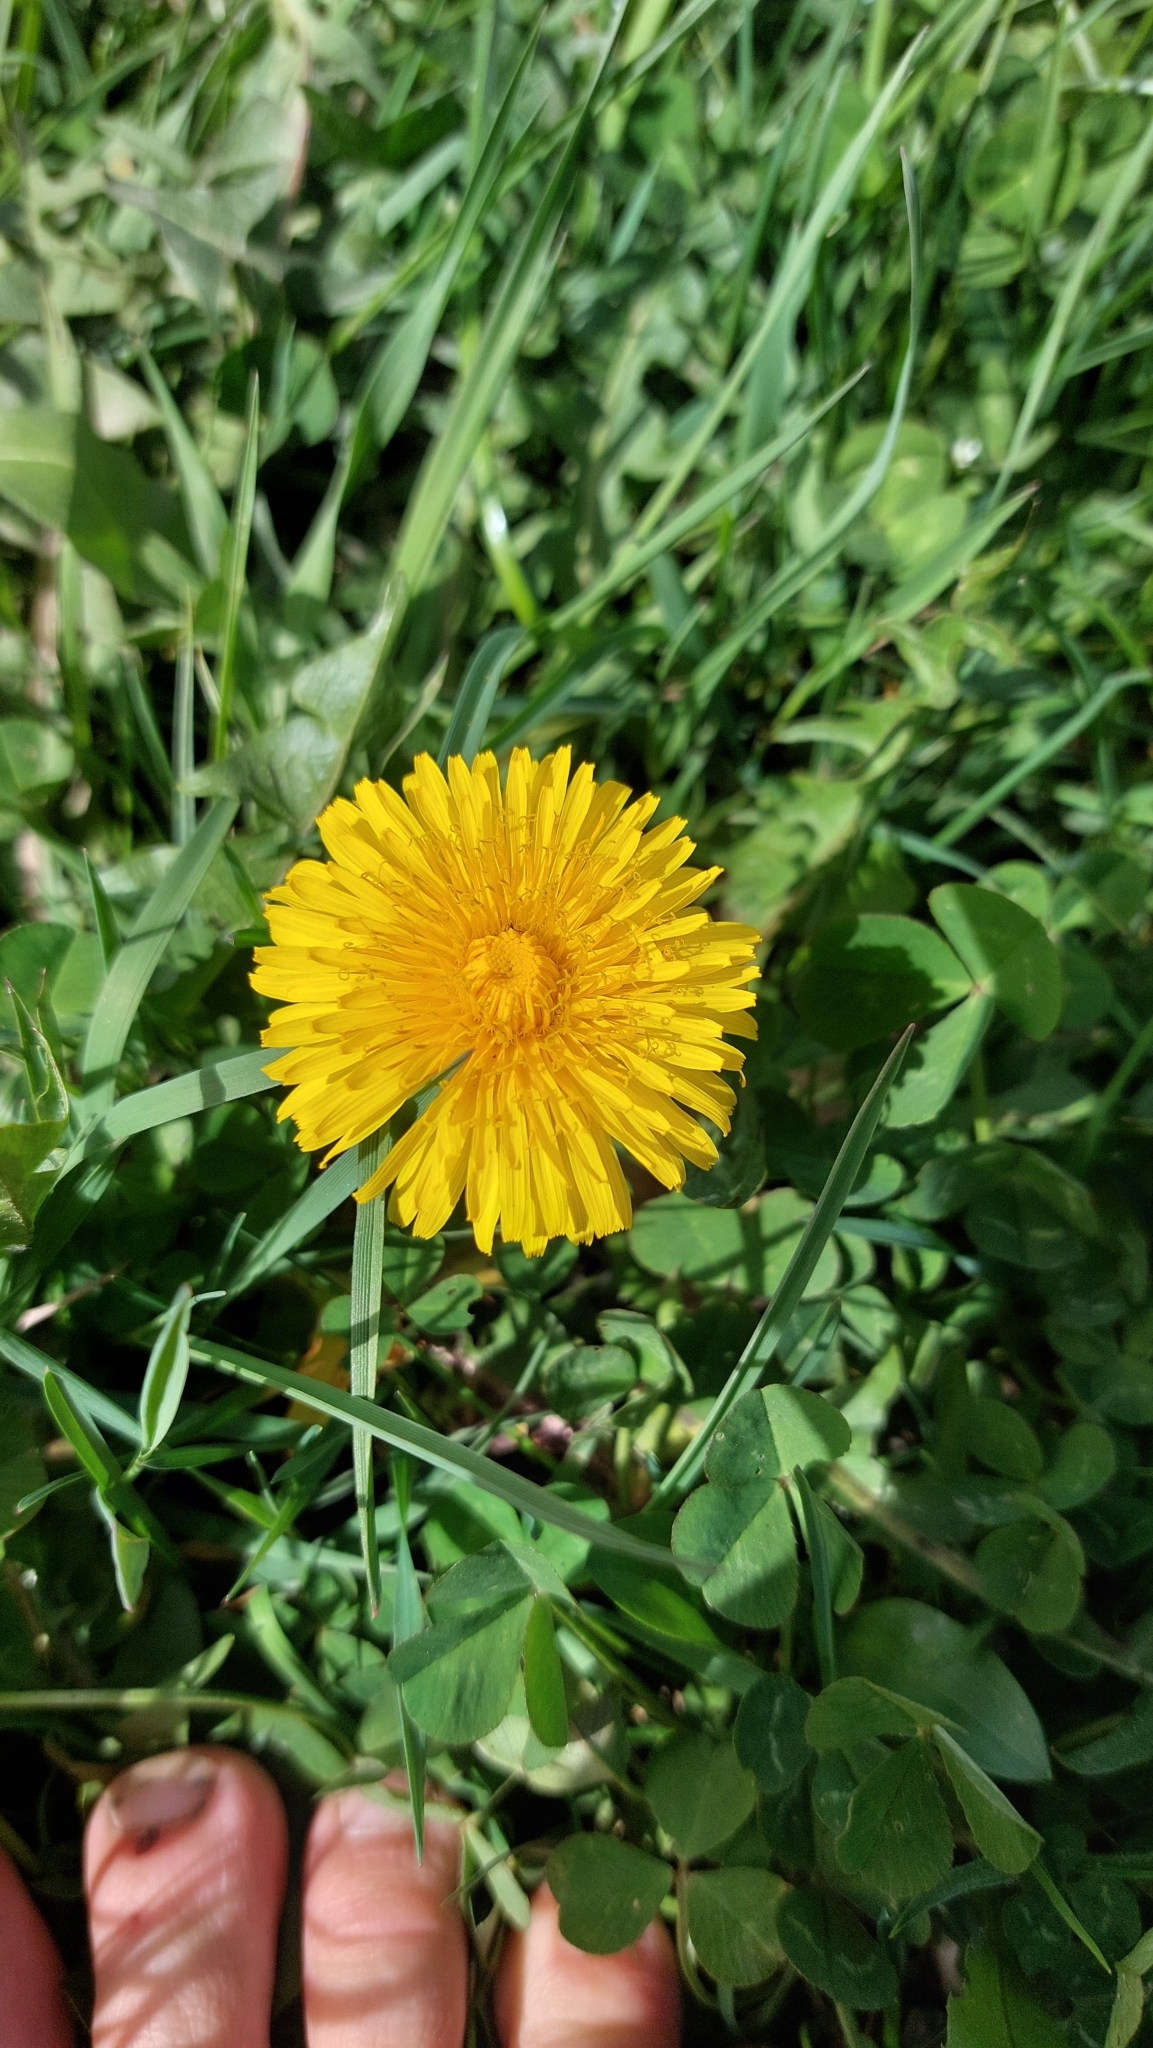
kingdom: Plantae
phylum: Tracheophyta
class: Magnoliopsida
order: Asterales
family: Asteraceae
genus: Taraxacum
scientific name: Taraxacum
